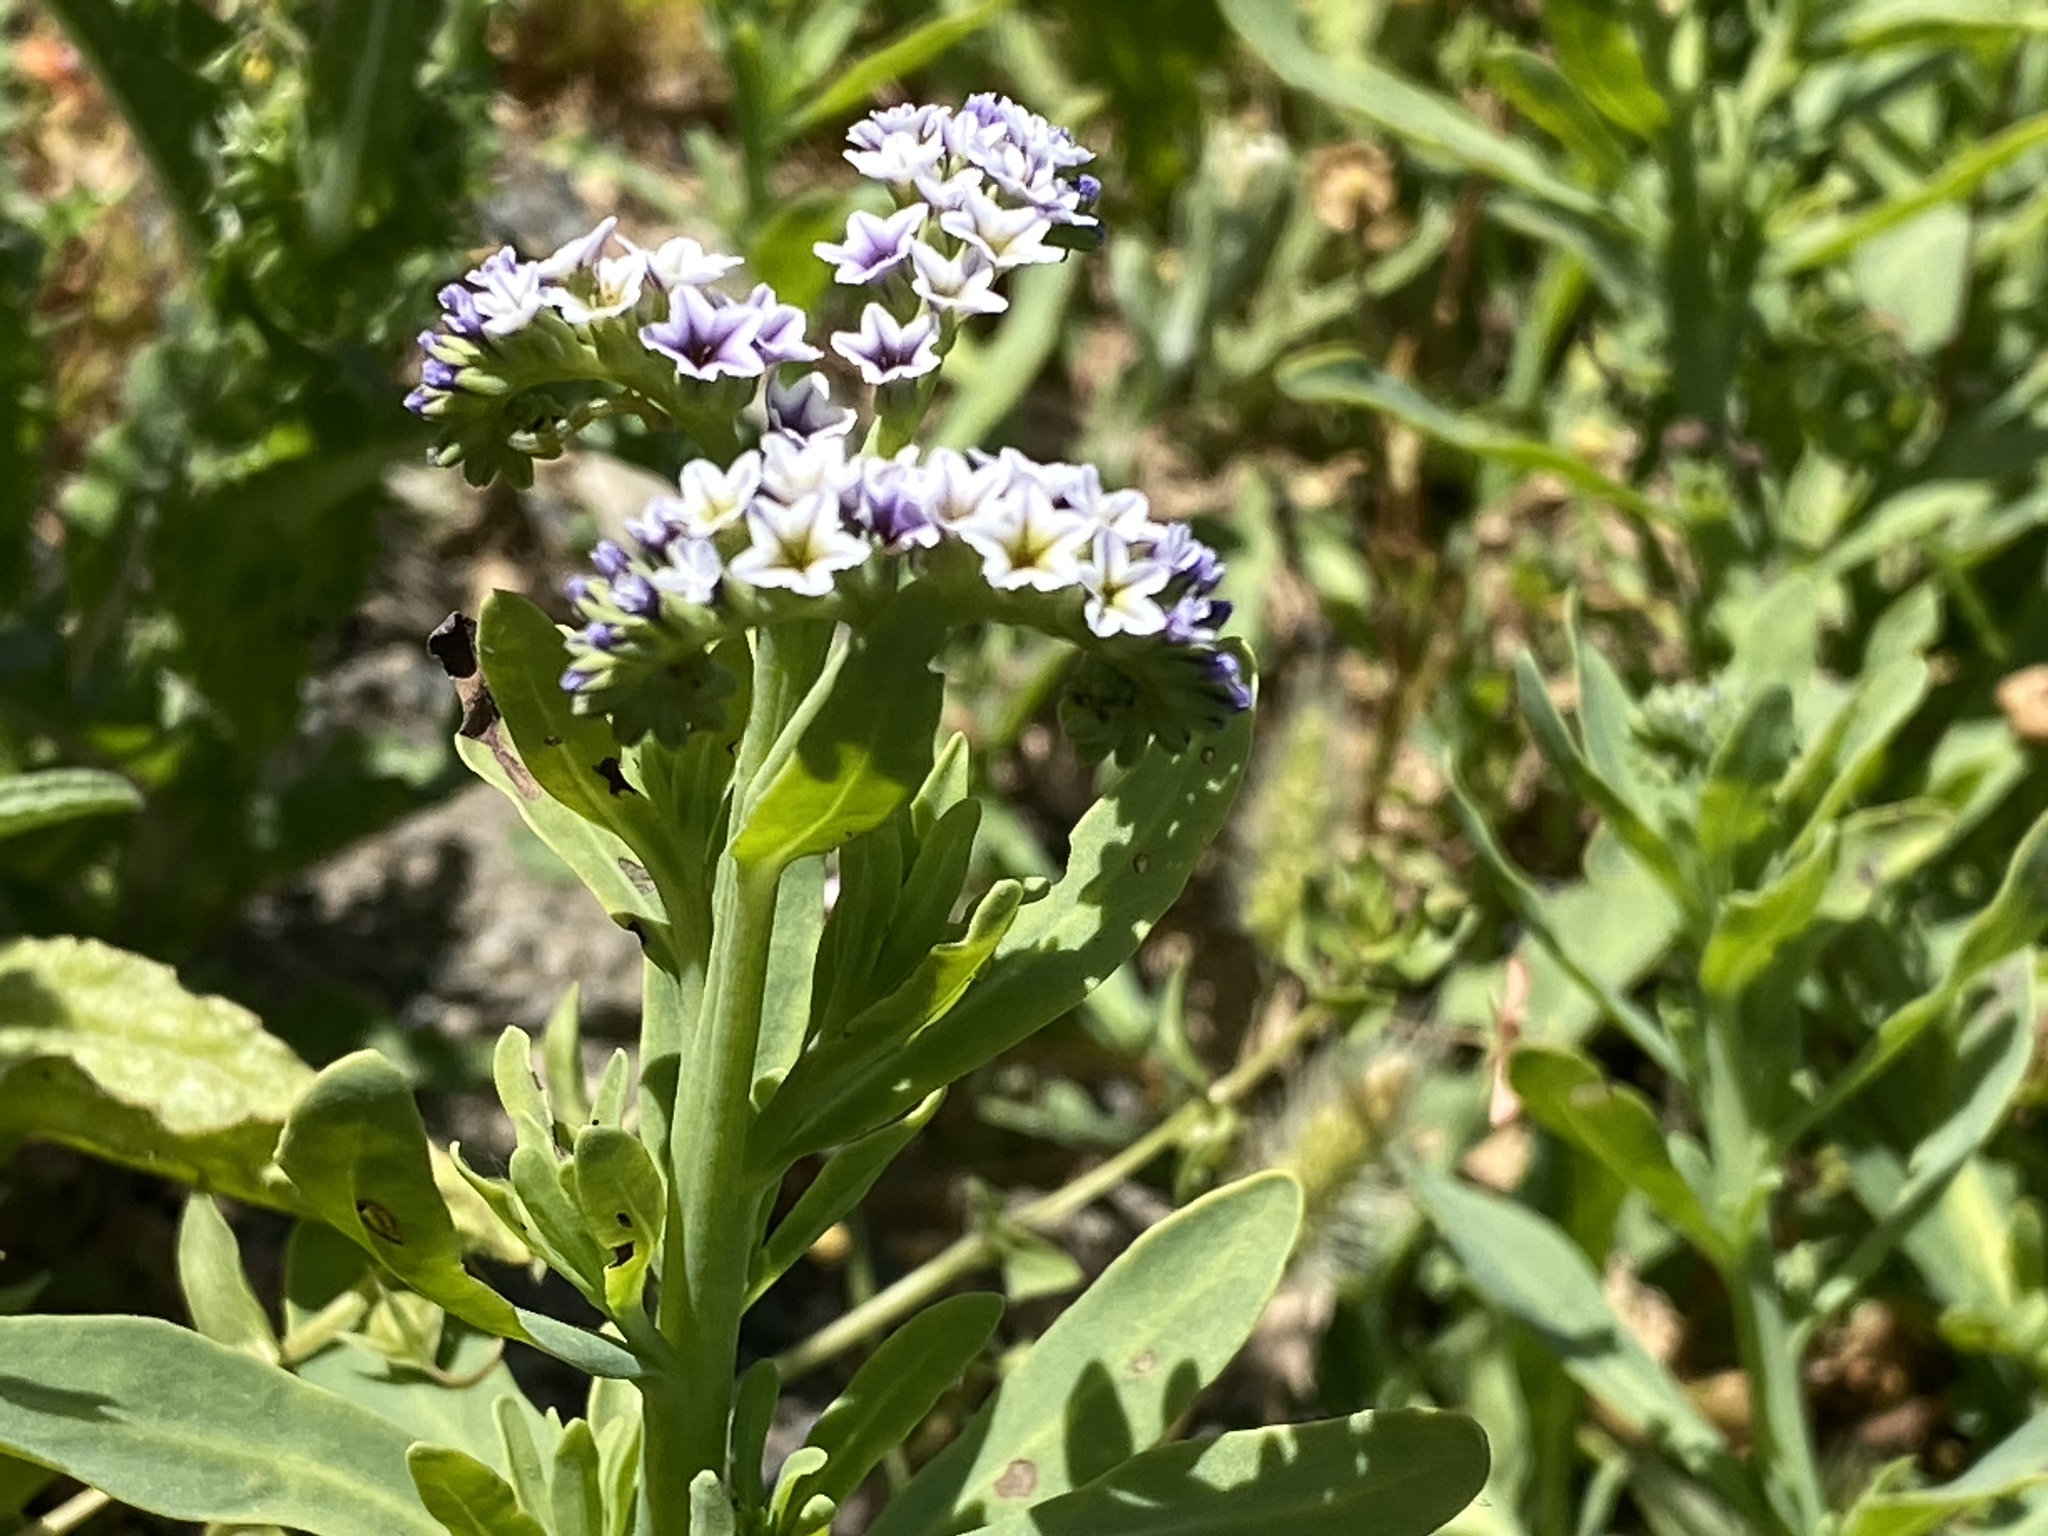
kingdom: Plantae
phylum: Tracheophyta
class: Magnoliopsida
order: Boraginales
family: Heliotropiaceae
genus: Heliotropium
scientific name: Heliotropium curassavicum
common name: Seaside heliotrope
